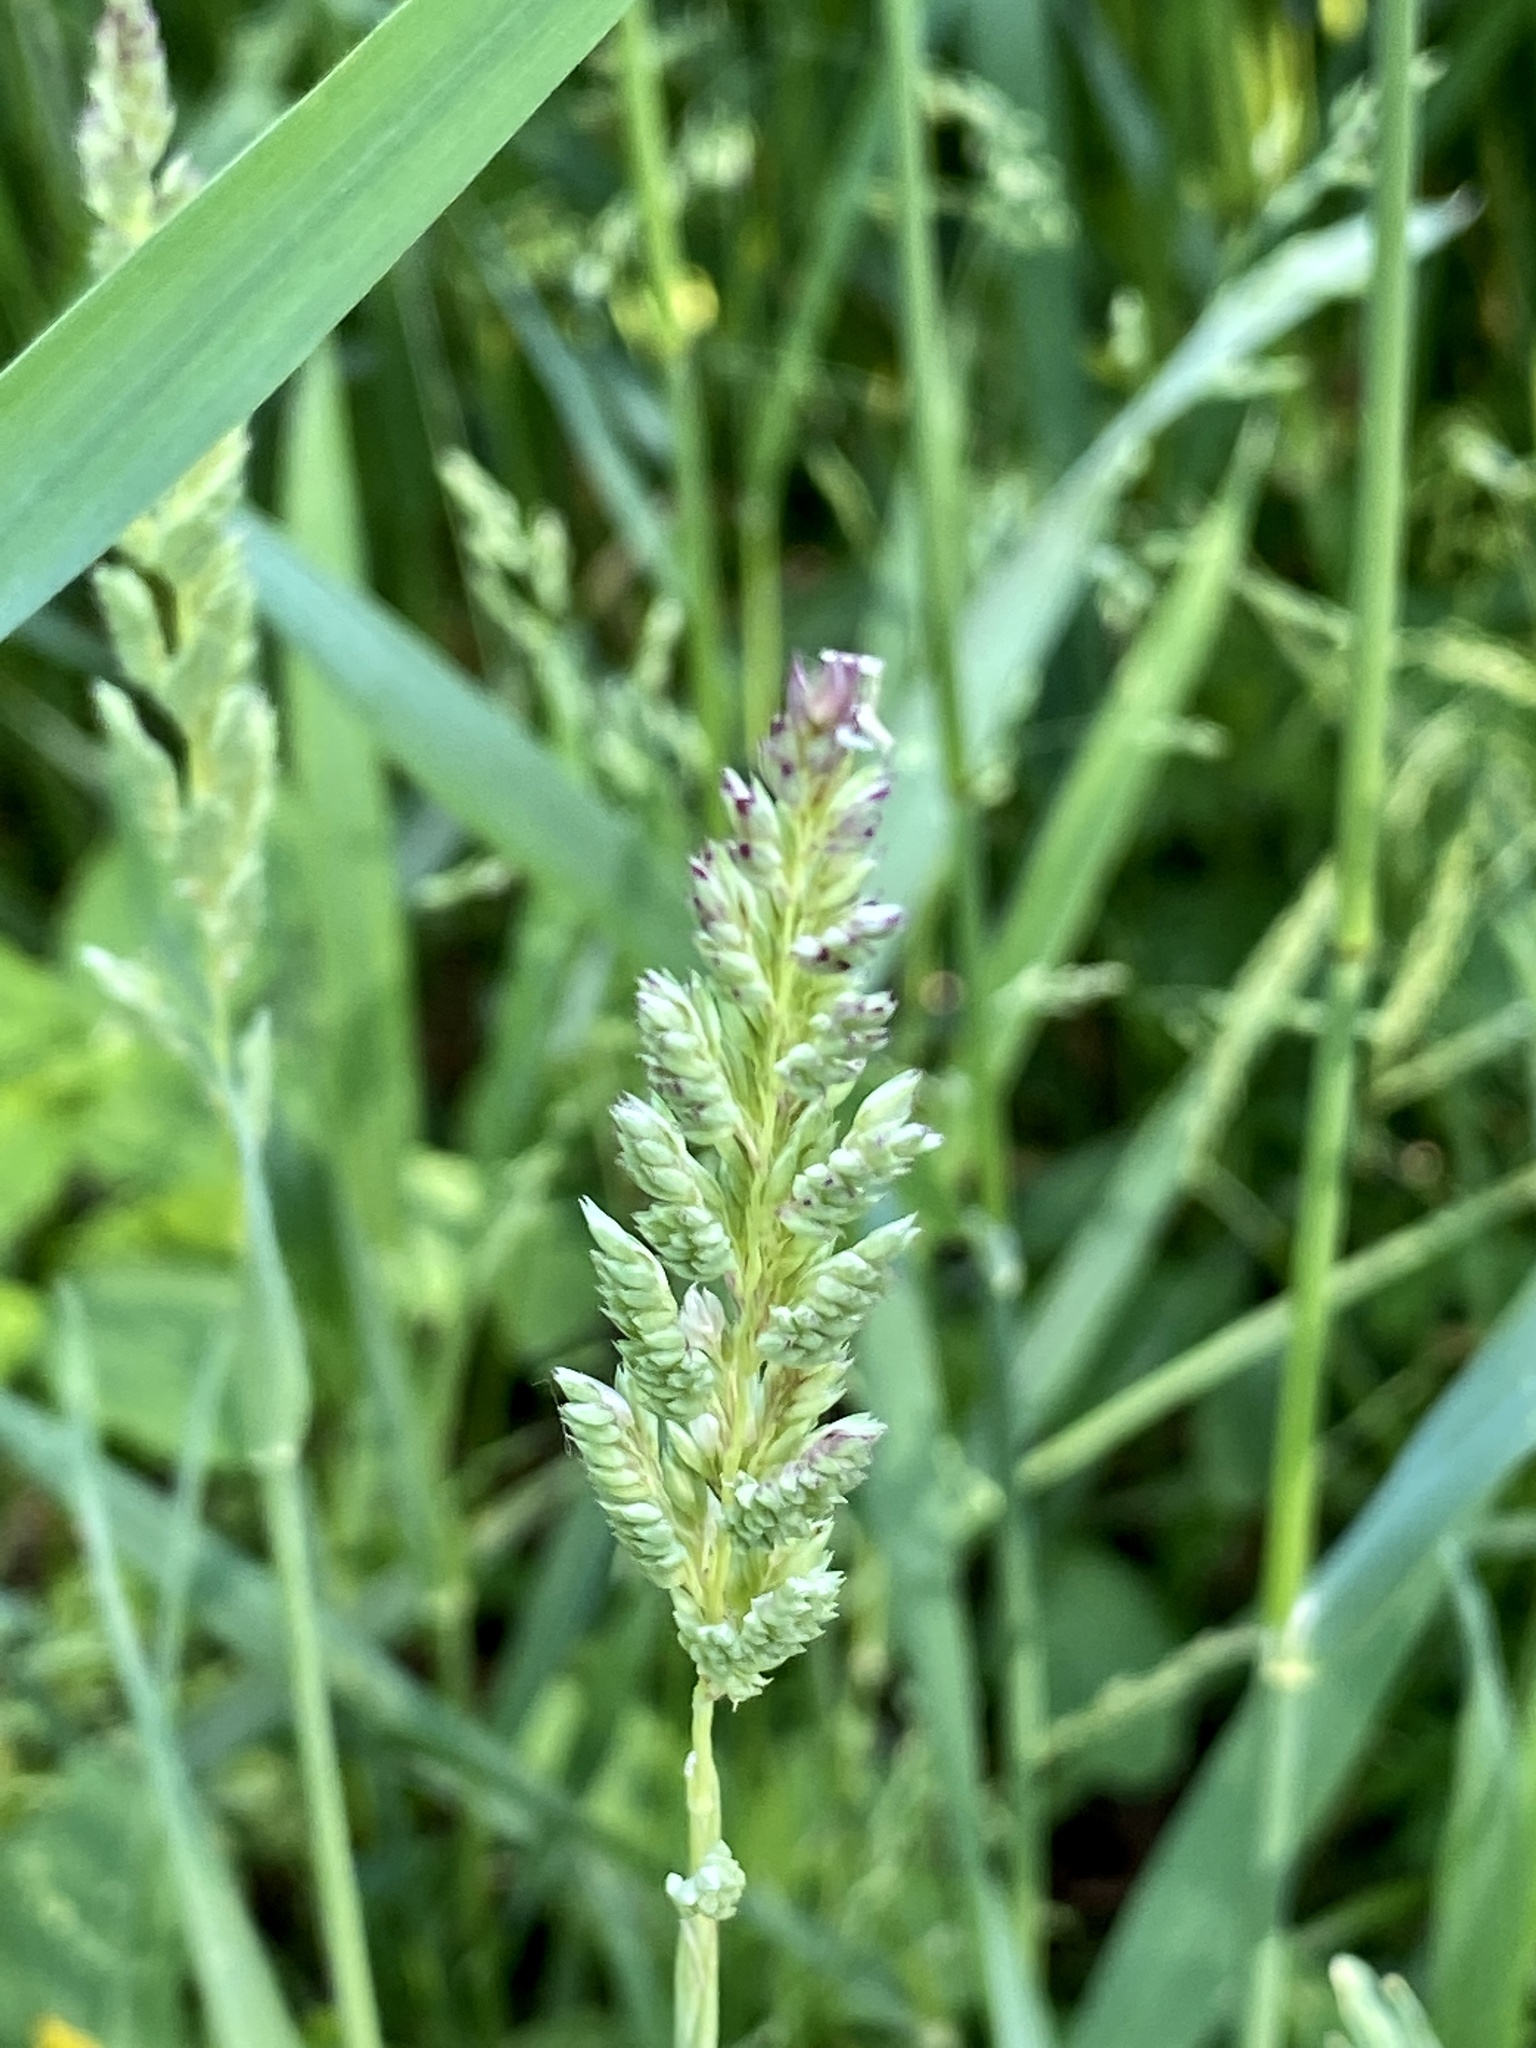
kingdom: Plantae
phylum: Tracheophyta
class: Liliopsida
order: Poales
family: Poaceae
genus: Phalaris
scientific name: Phalaris arundinacea
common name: Reed canary-grass
